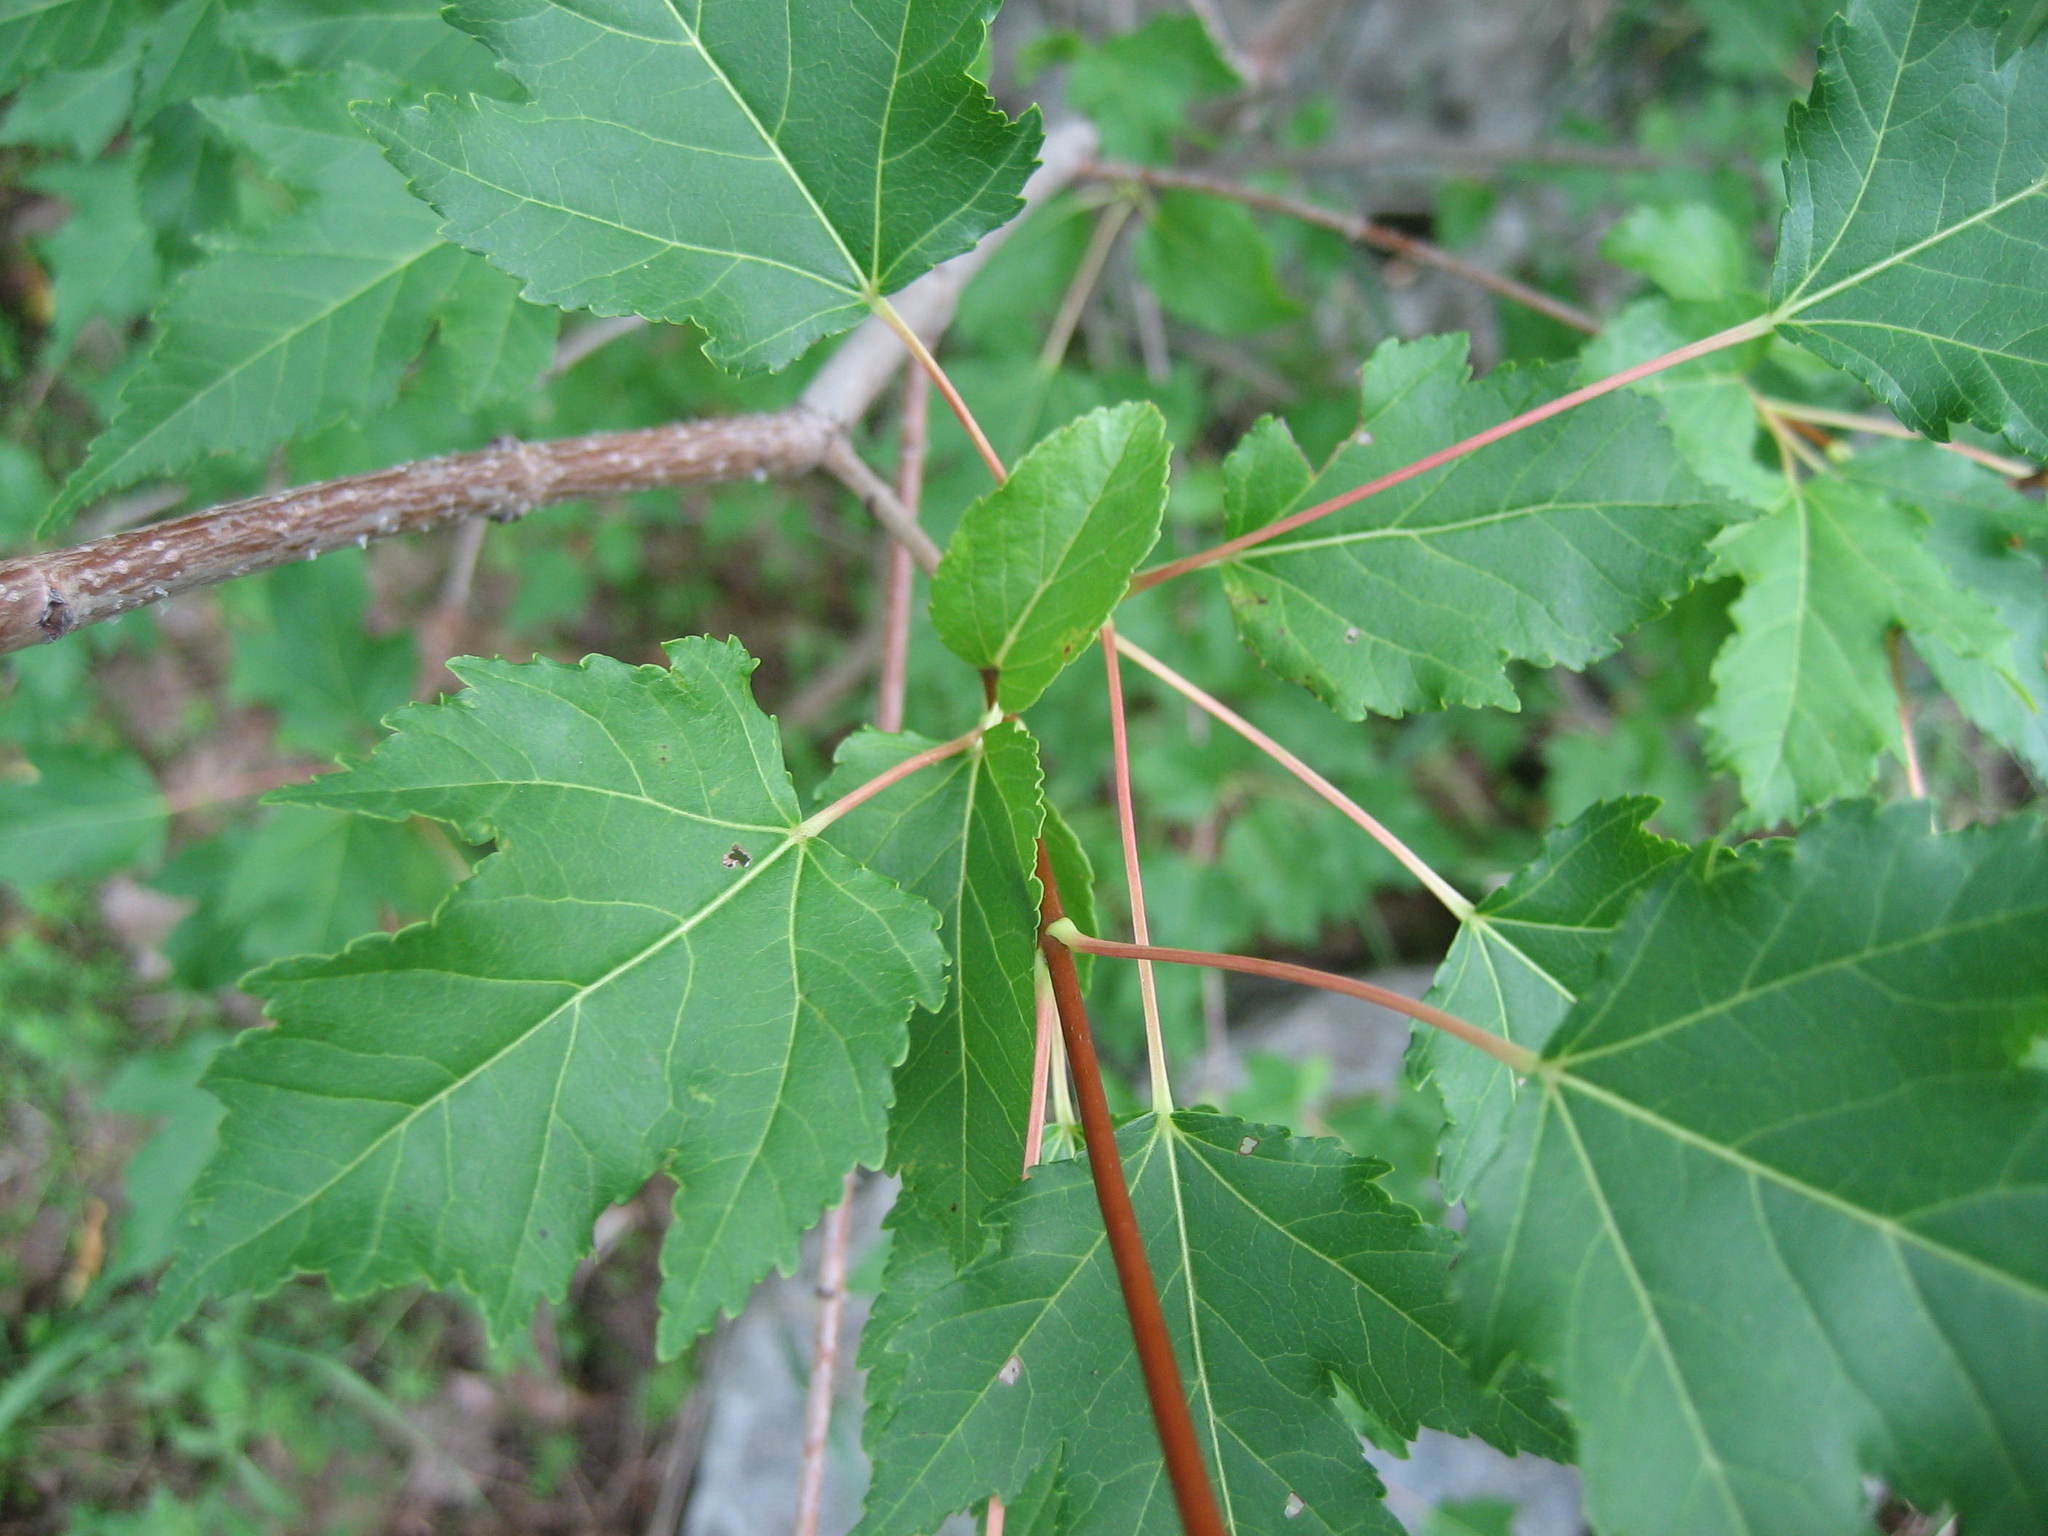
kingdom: Plantae
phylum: Tracheophyta
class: Magnoliopsida
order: Sapindales
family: Sapindaceae
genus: Acer
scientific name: Acer tataricum
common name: Tartar maple
